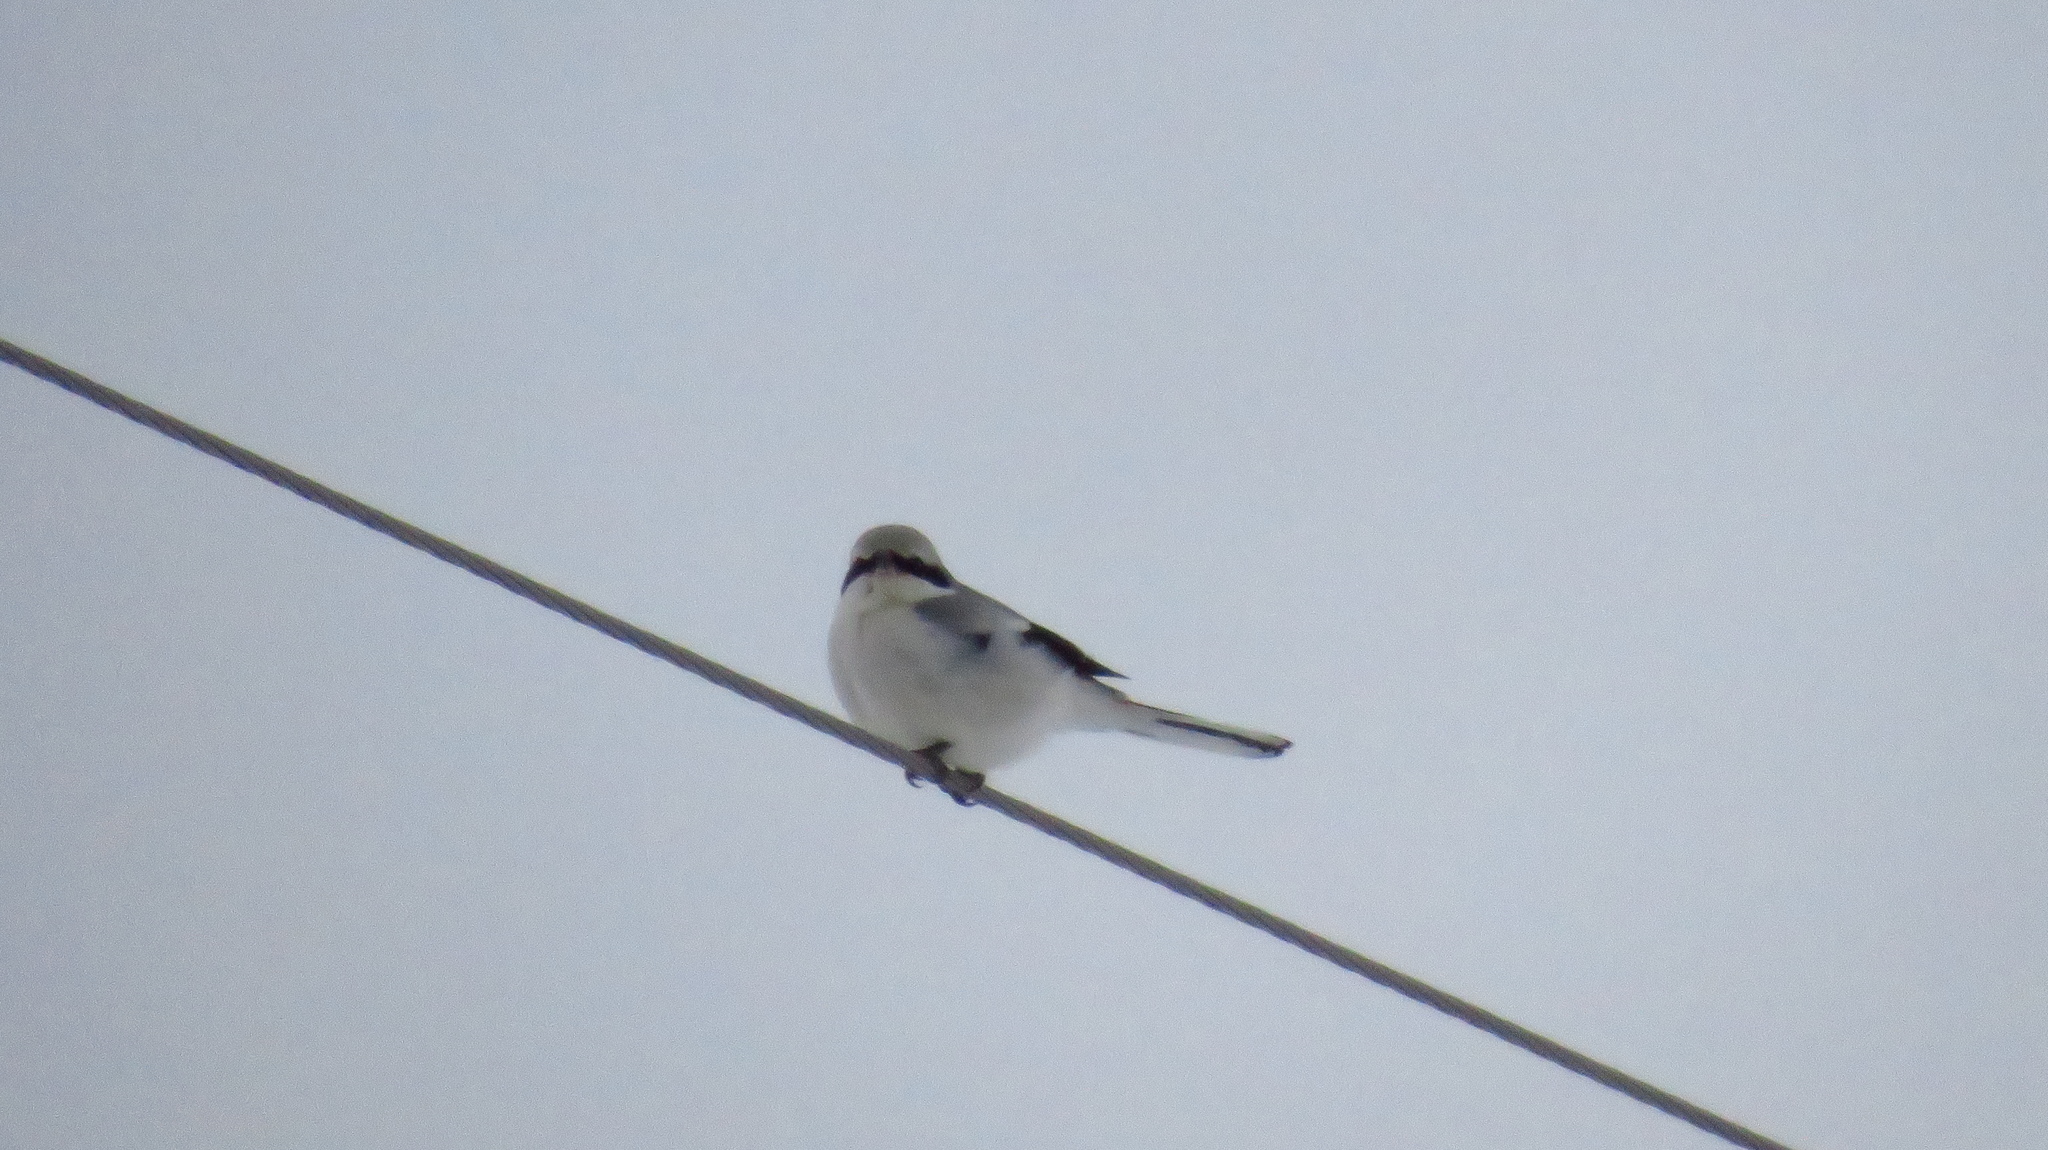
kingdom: Animalia
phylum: Chordata
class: Aves
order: Passeriformes
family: Laniidae
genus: Lanius
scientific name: Lanius excubitor
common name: Great grey shrike
